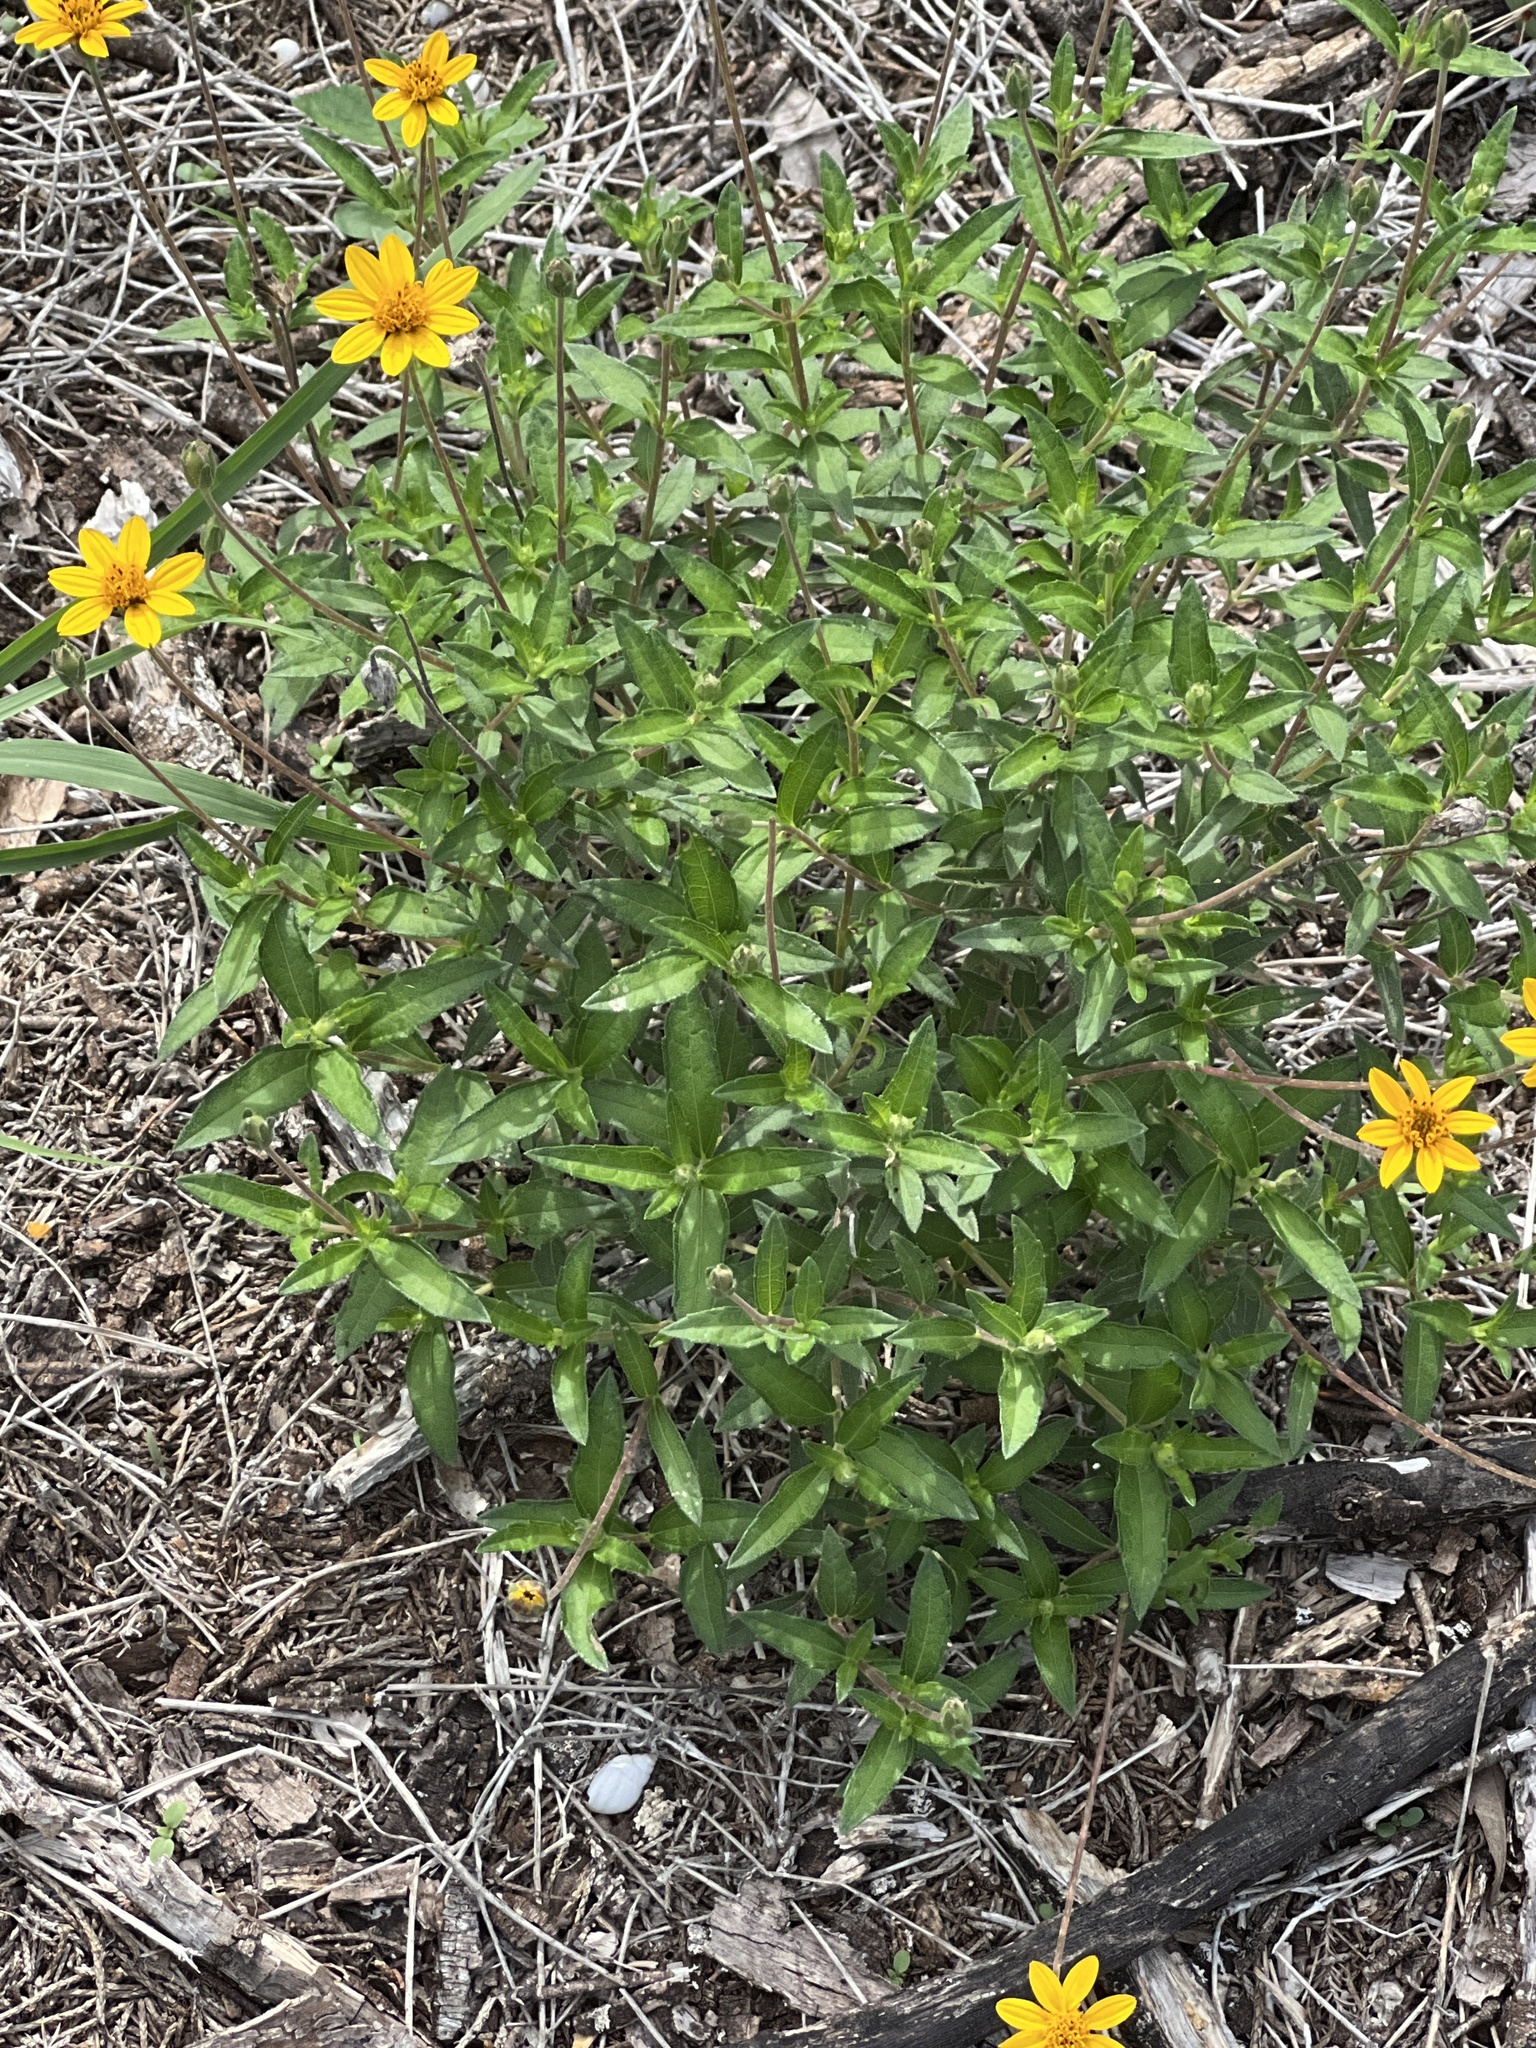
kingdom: Plantae
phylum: Tracheophyta
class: Magnoliopsida
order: Asterales
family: Asteraceae
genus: Wedelia
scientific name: Wedelia acapulcensis
